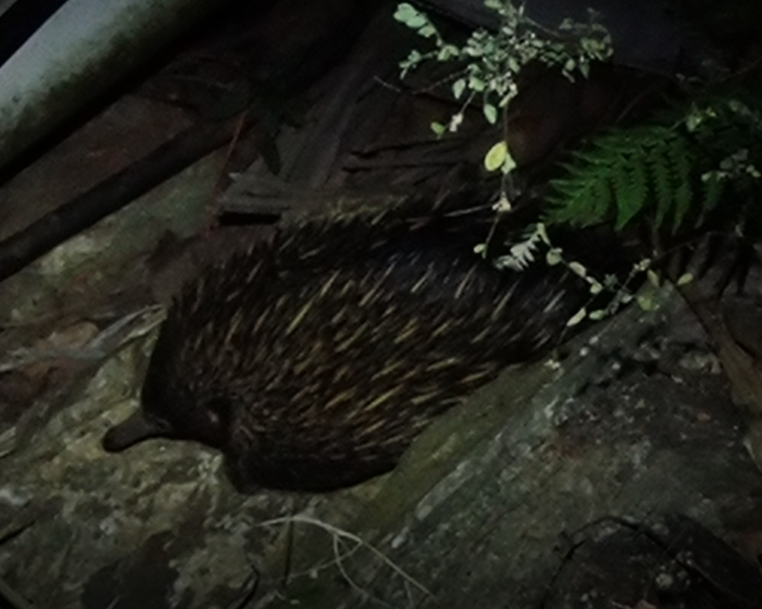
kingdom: Animalia
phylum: Chordata
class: Mammalia
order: Monotremata
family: Tachyglossidae
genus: Tachyglossus
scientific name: Tachyglossus aculeatus
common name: Short-beaked echidna
